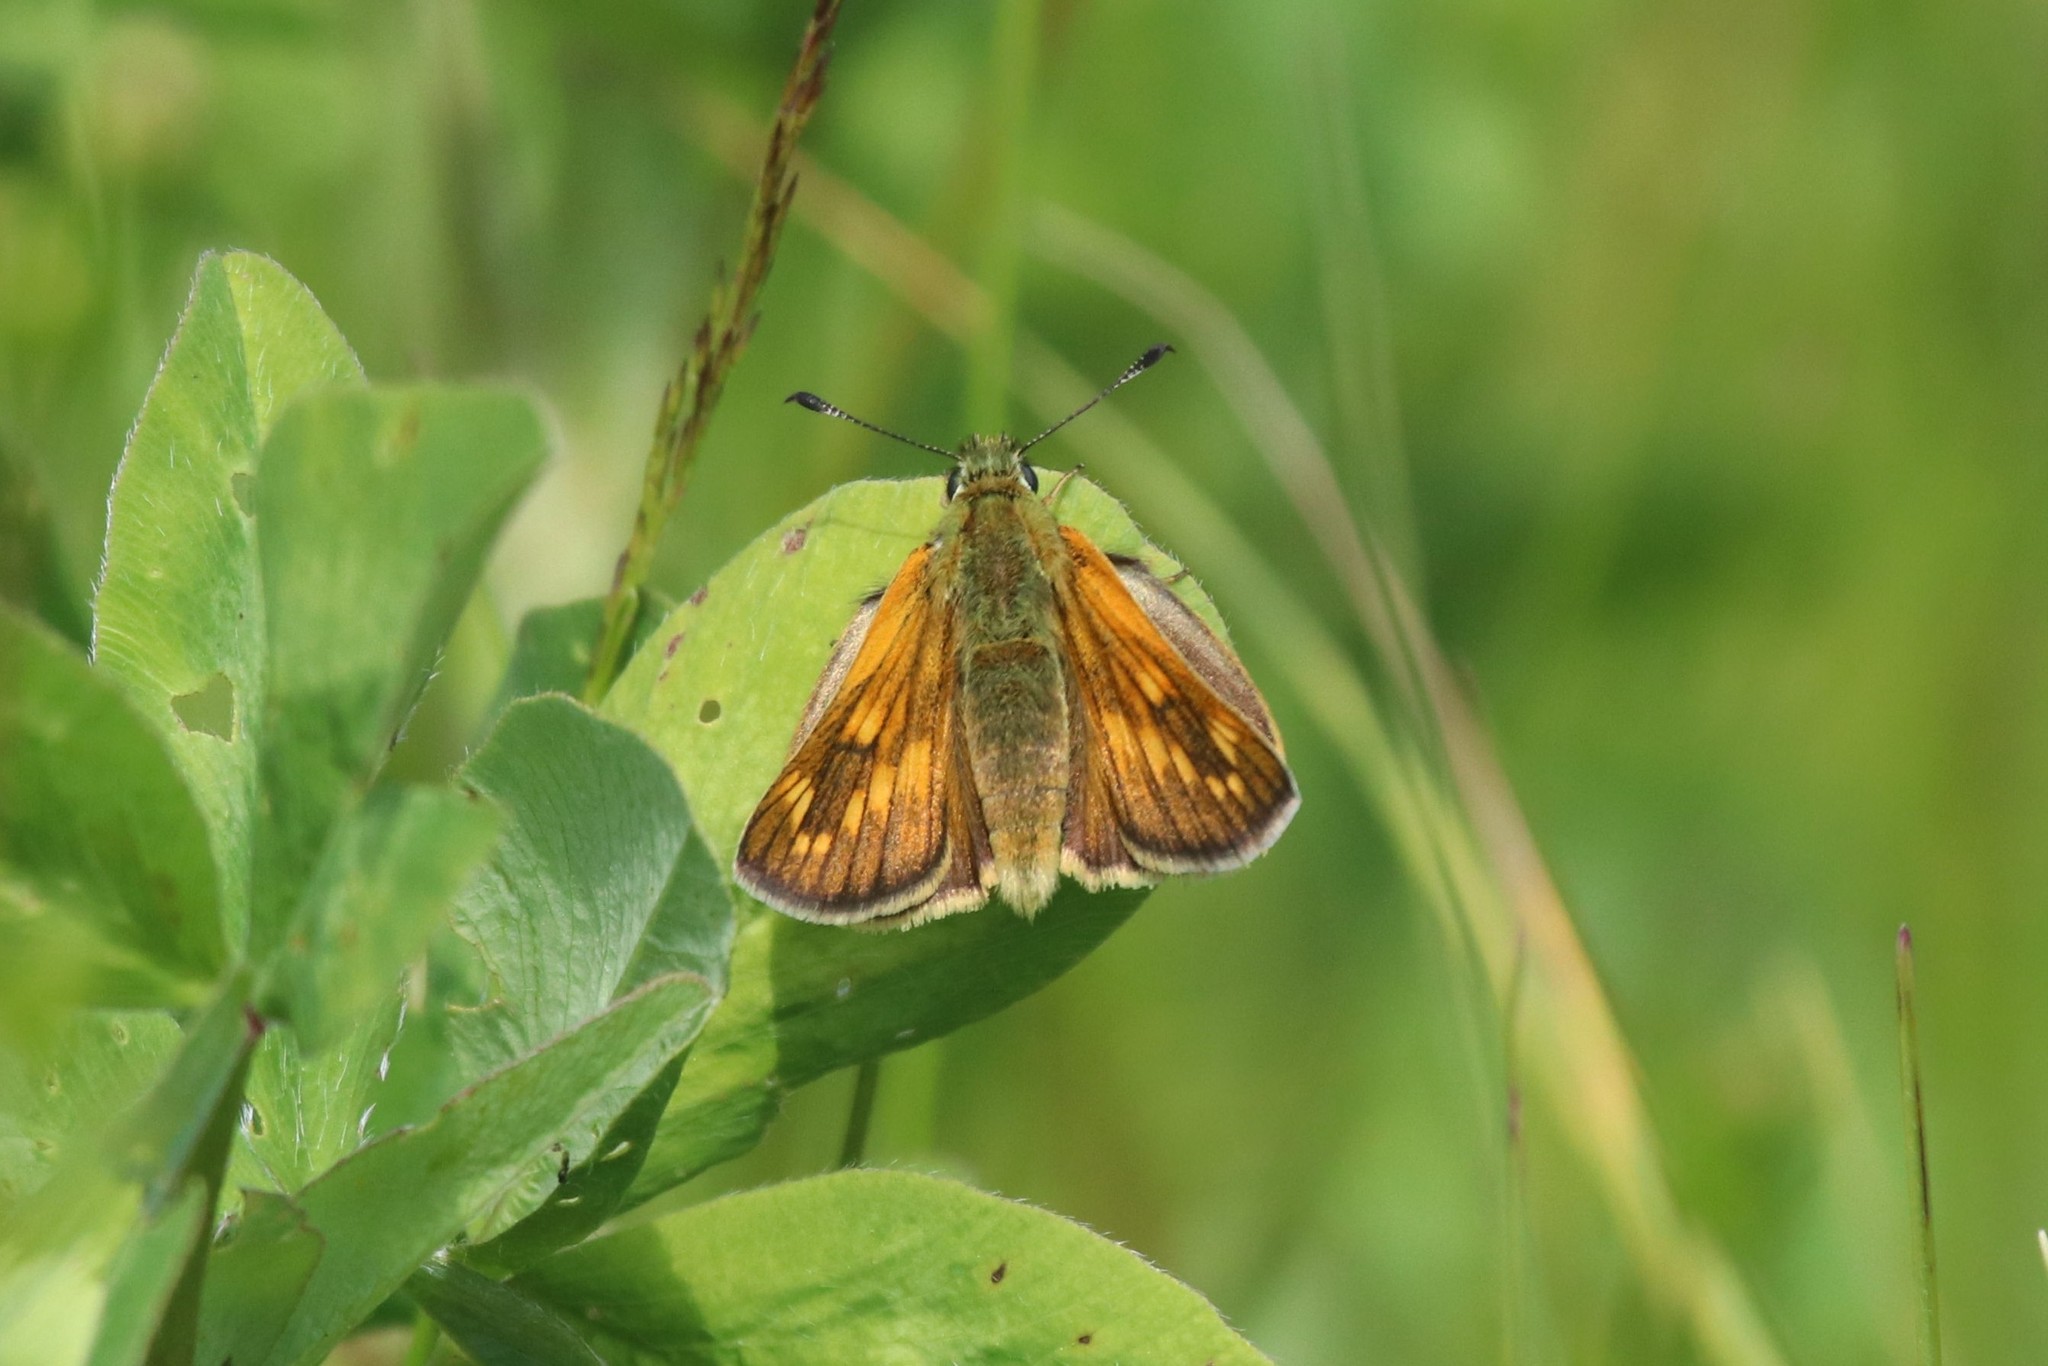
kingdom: Animalia
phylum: Arthropoda
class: Insecta
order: Lepidoptera
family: Hesperiidae
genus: Ochlodes
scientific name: Ochlodes venata
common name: Large skipper
